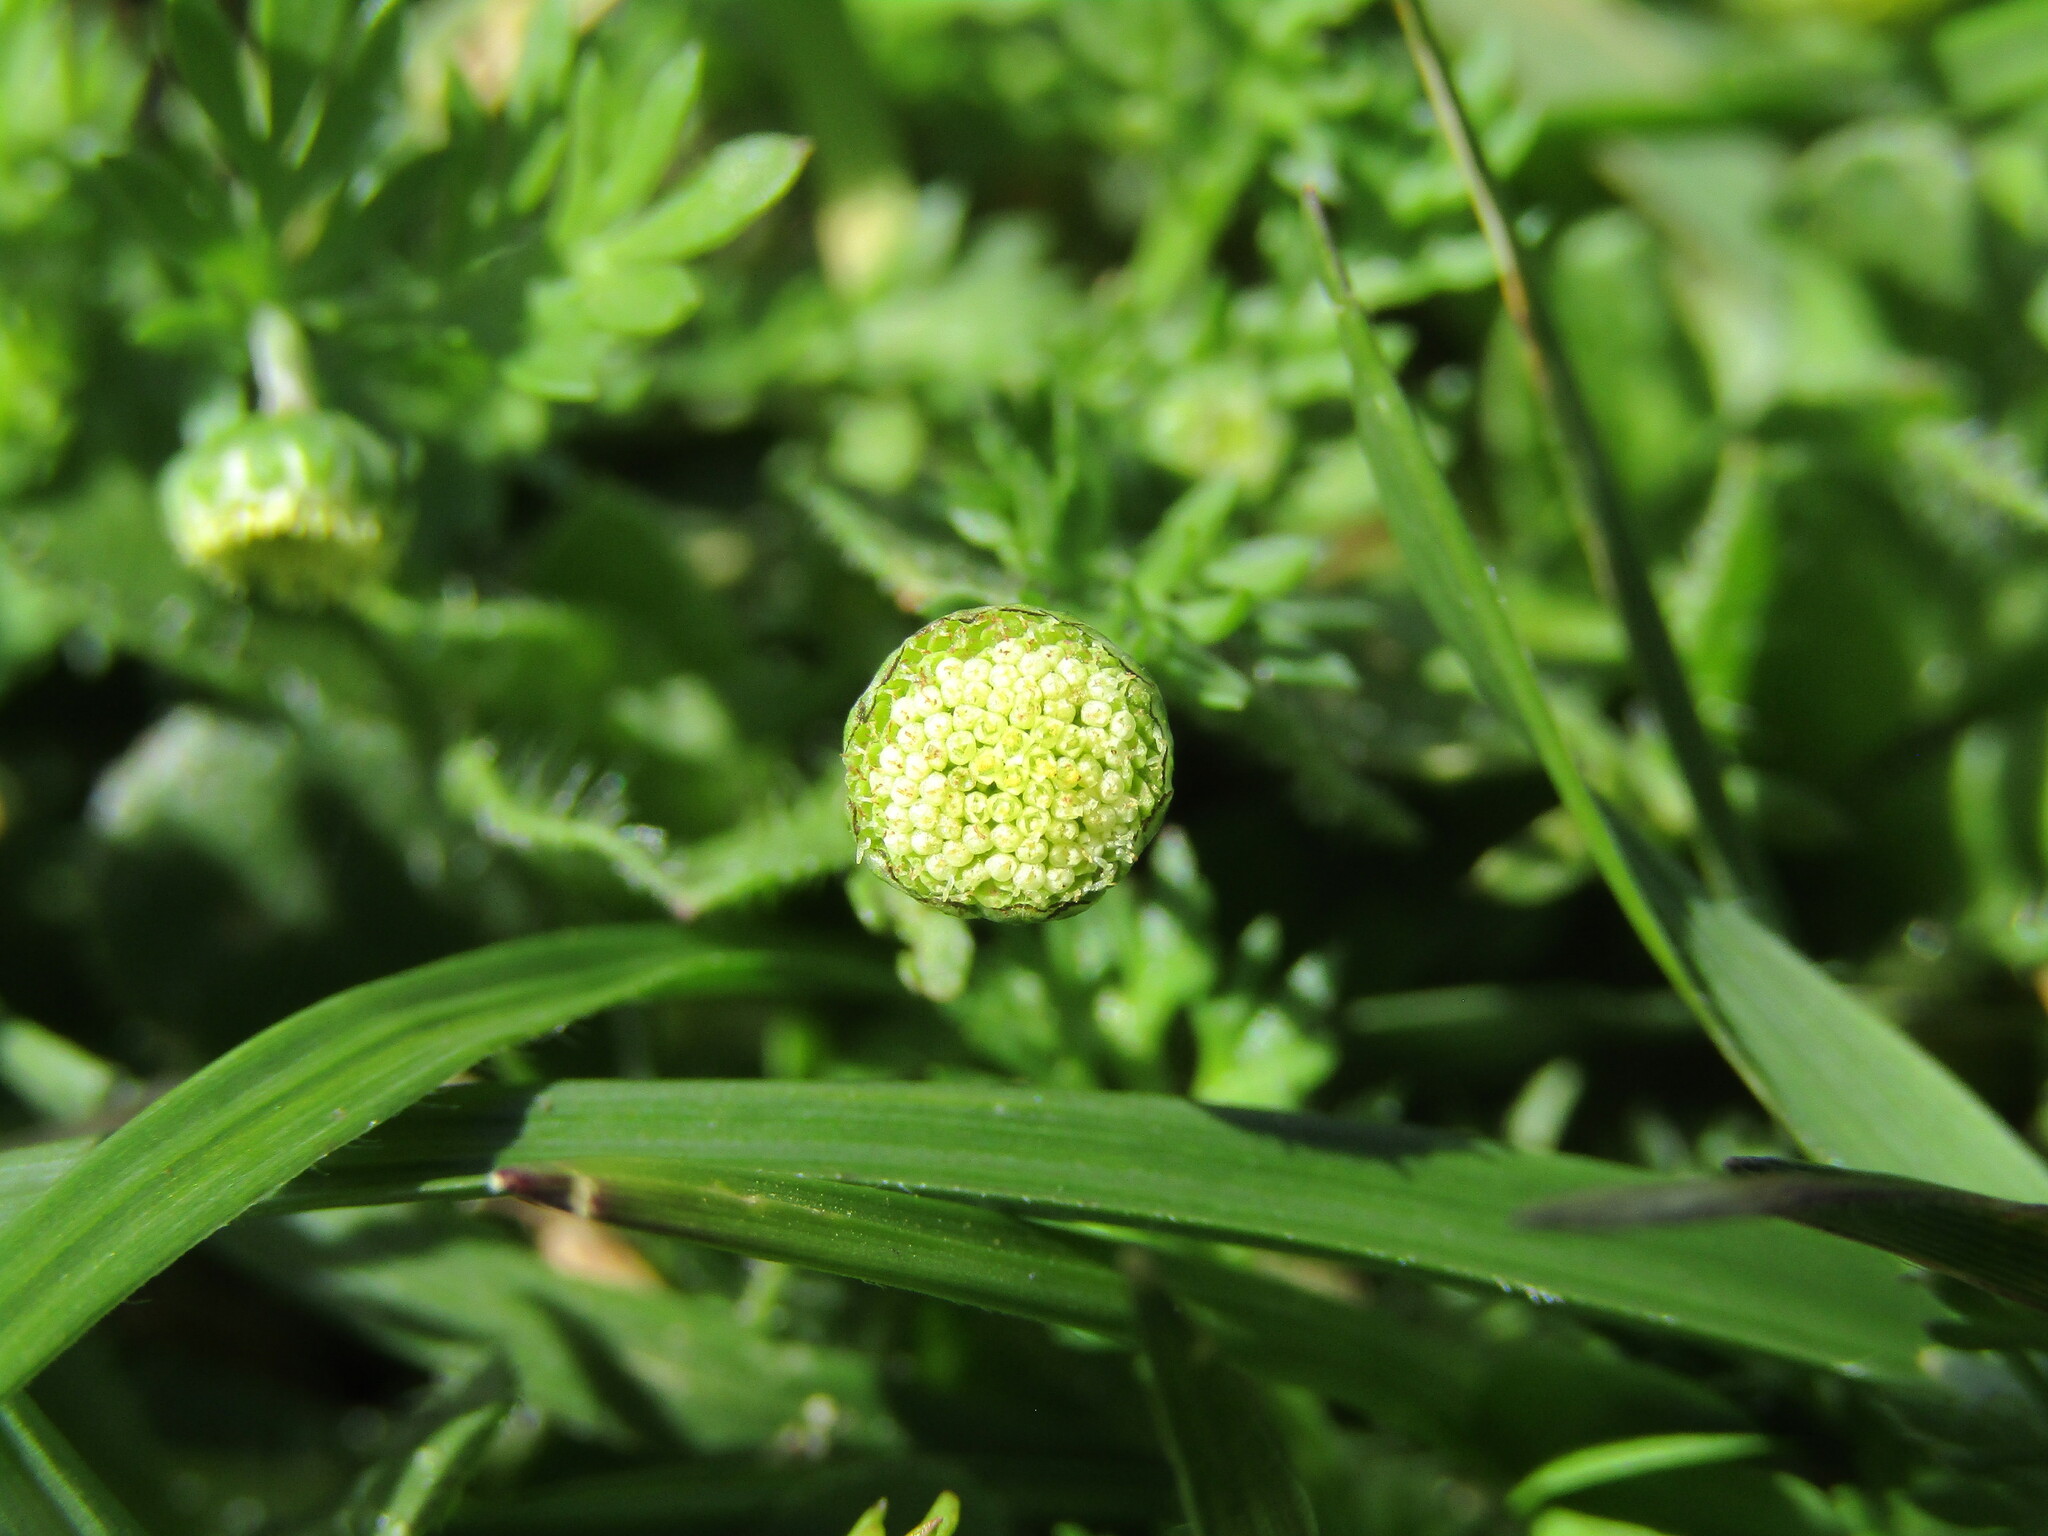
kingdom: Plantae
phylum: Tracheophyta
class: Magnoliopsida
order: Asterales
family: Asteraceae
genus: Cotula
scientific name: Cotula australis
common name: Australian waterbuttons
